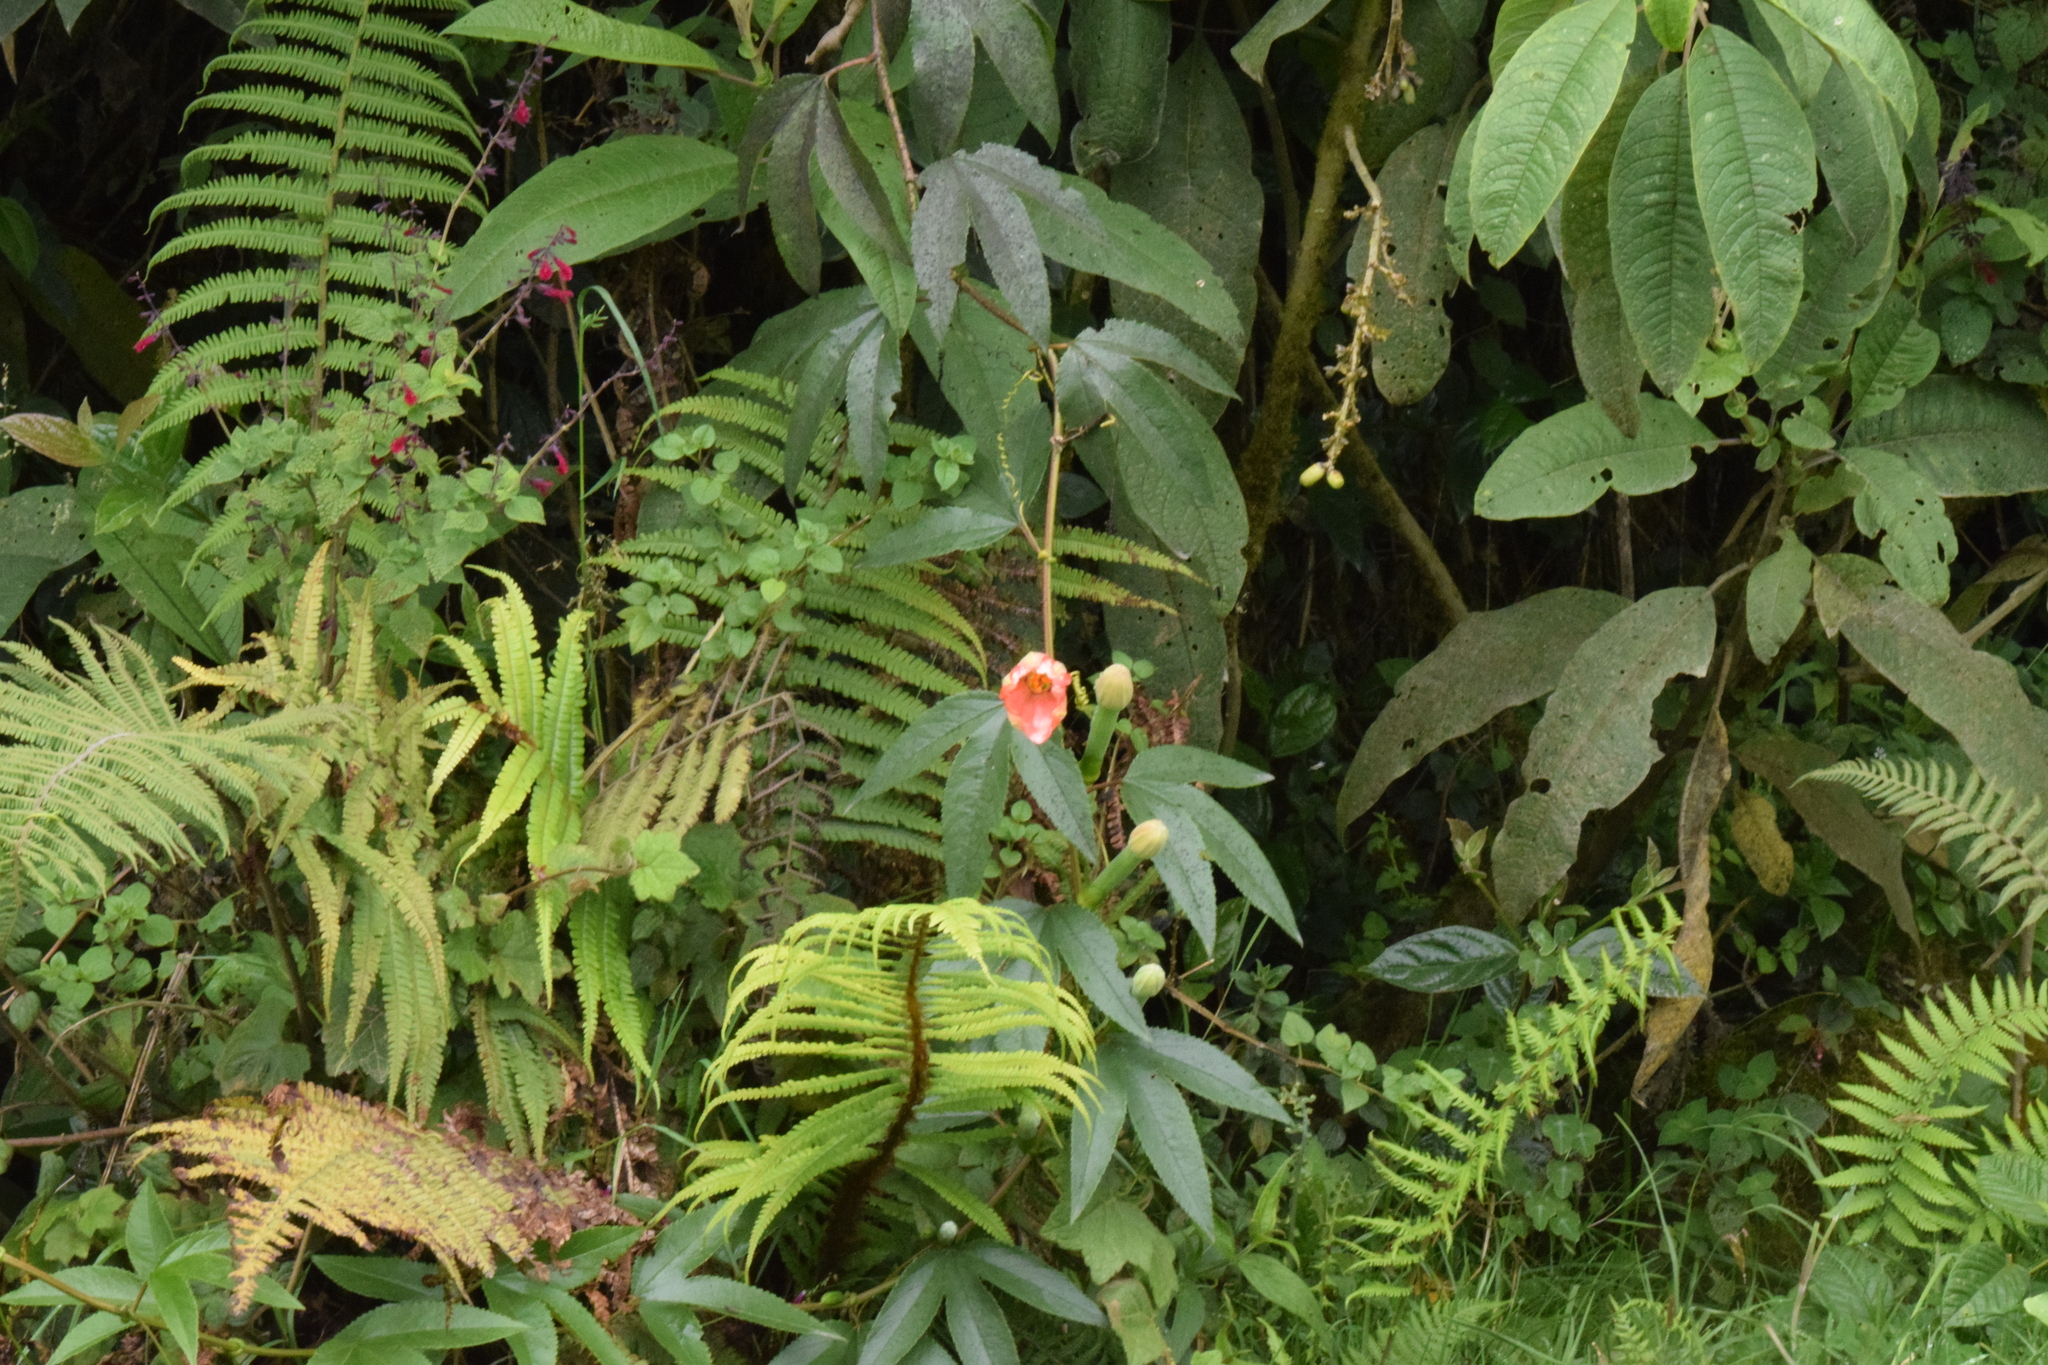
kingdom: Plantae
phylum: Tracheophyta
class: Magnoliopsida
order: Malpighiales
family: Passifloraceae
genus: Passiflora
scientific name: Passiflora mixta
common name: Passion flower
